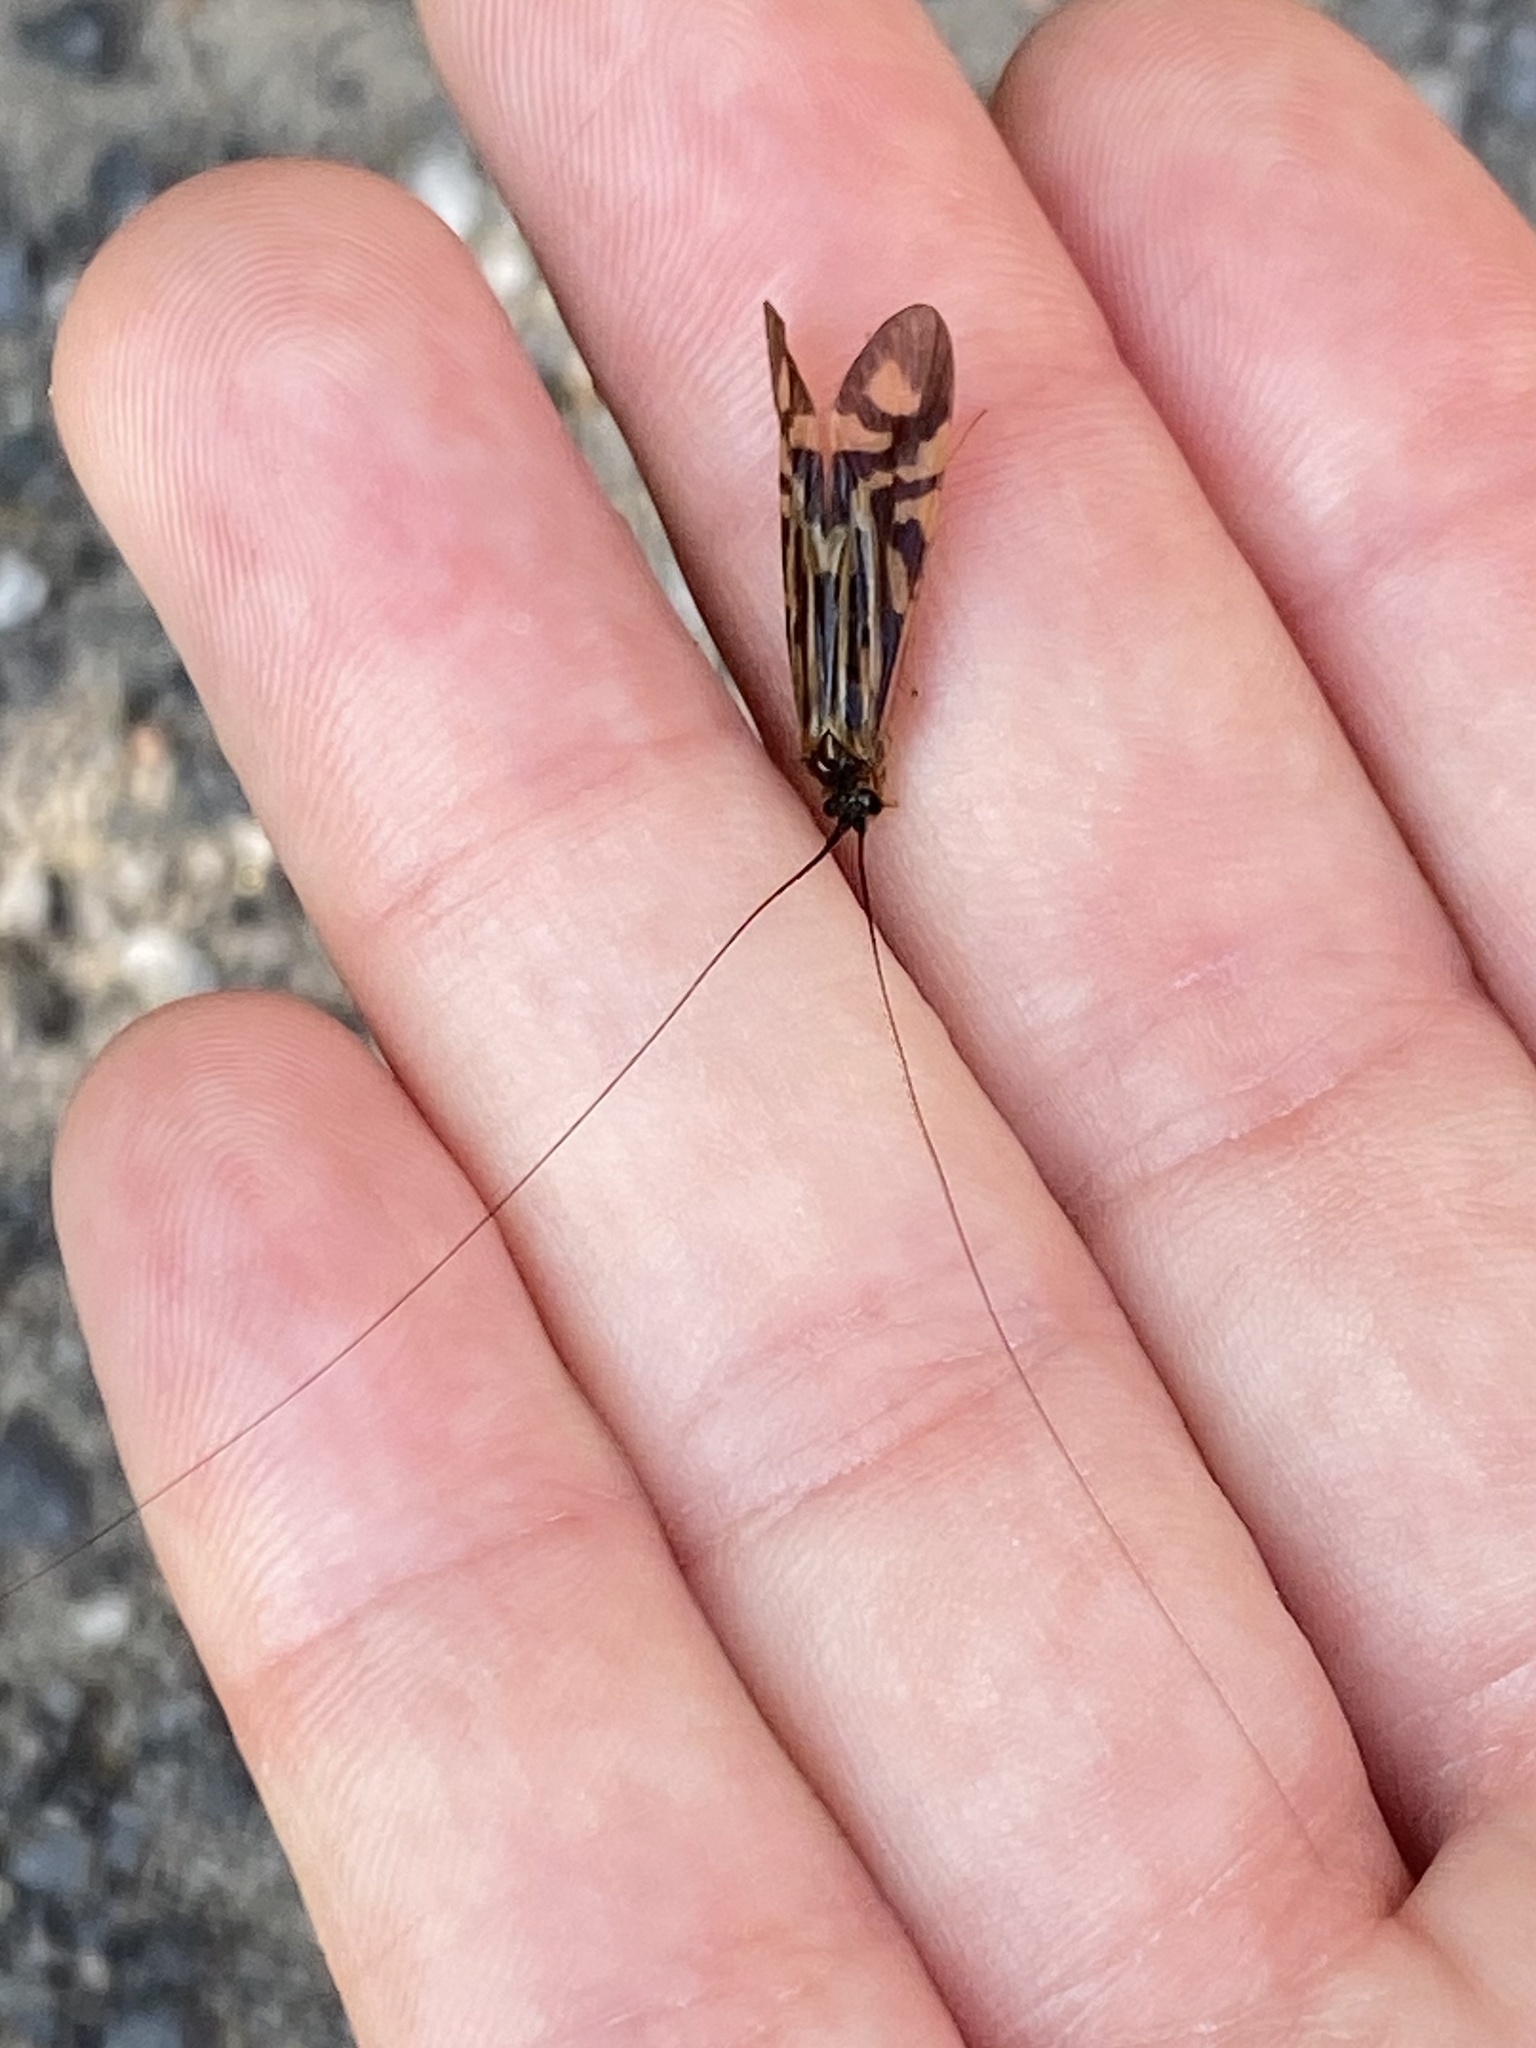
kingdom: Animalia
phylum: Arthropoda
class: Insecta
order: Trichoptera
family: Hydropsychidae
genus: Macrostemum
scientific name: Macrostemum zebratum
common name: Zebra caddisfly
